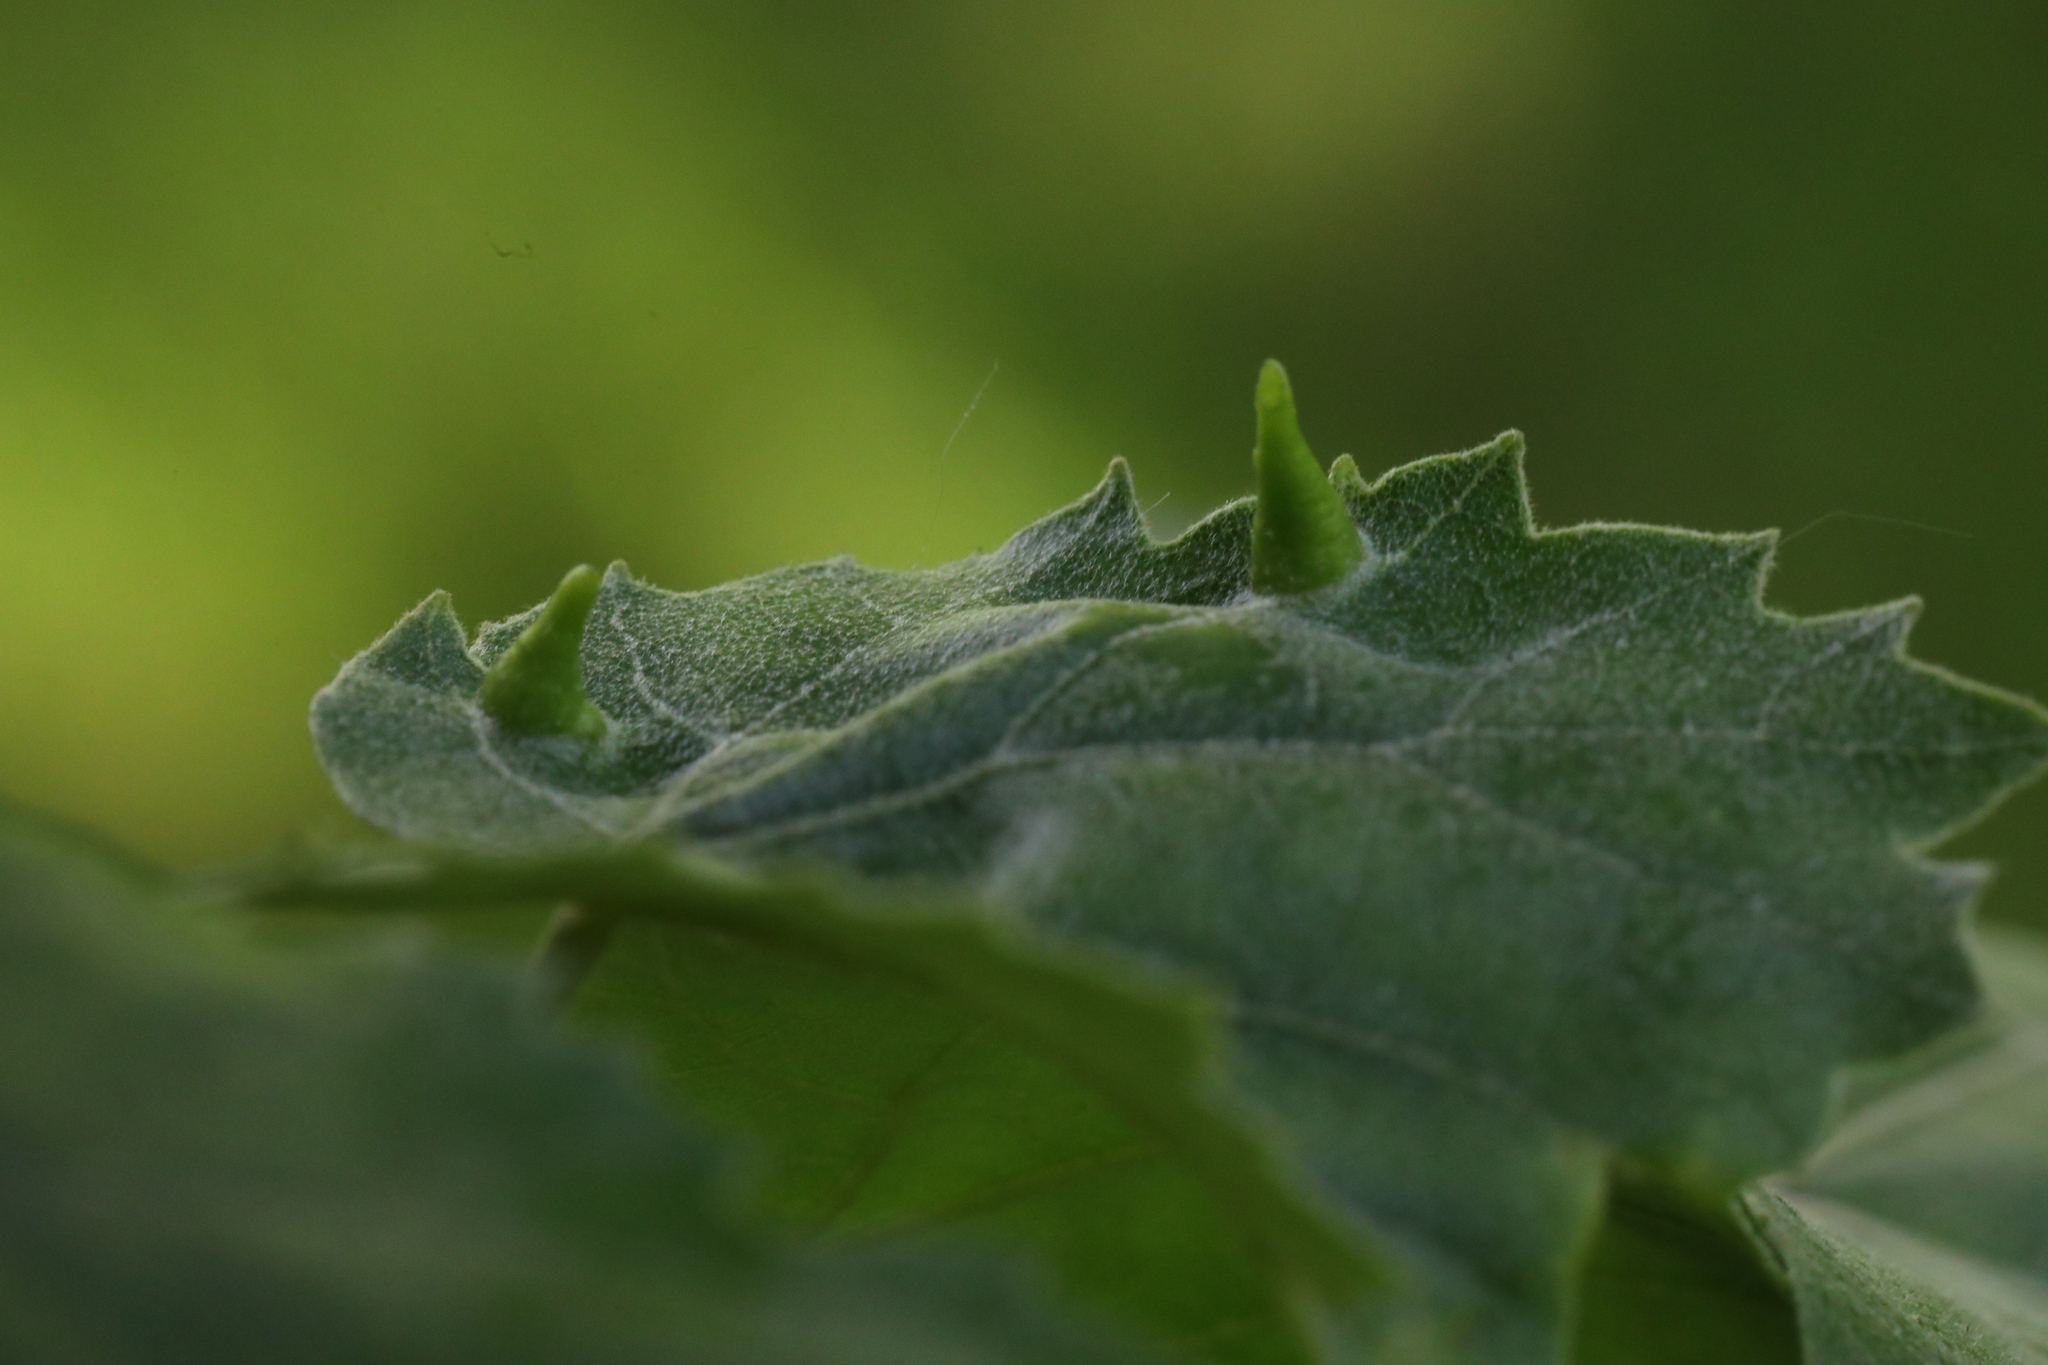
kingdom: Plantae
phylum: Tracheophyta
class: Magnoliopsida
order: Malvales
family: Malvaceae
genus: Tilia
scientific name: Tilia tomentosa
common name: Silver lime
